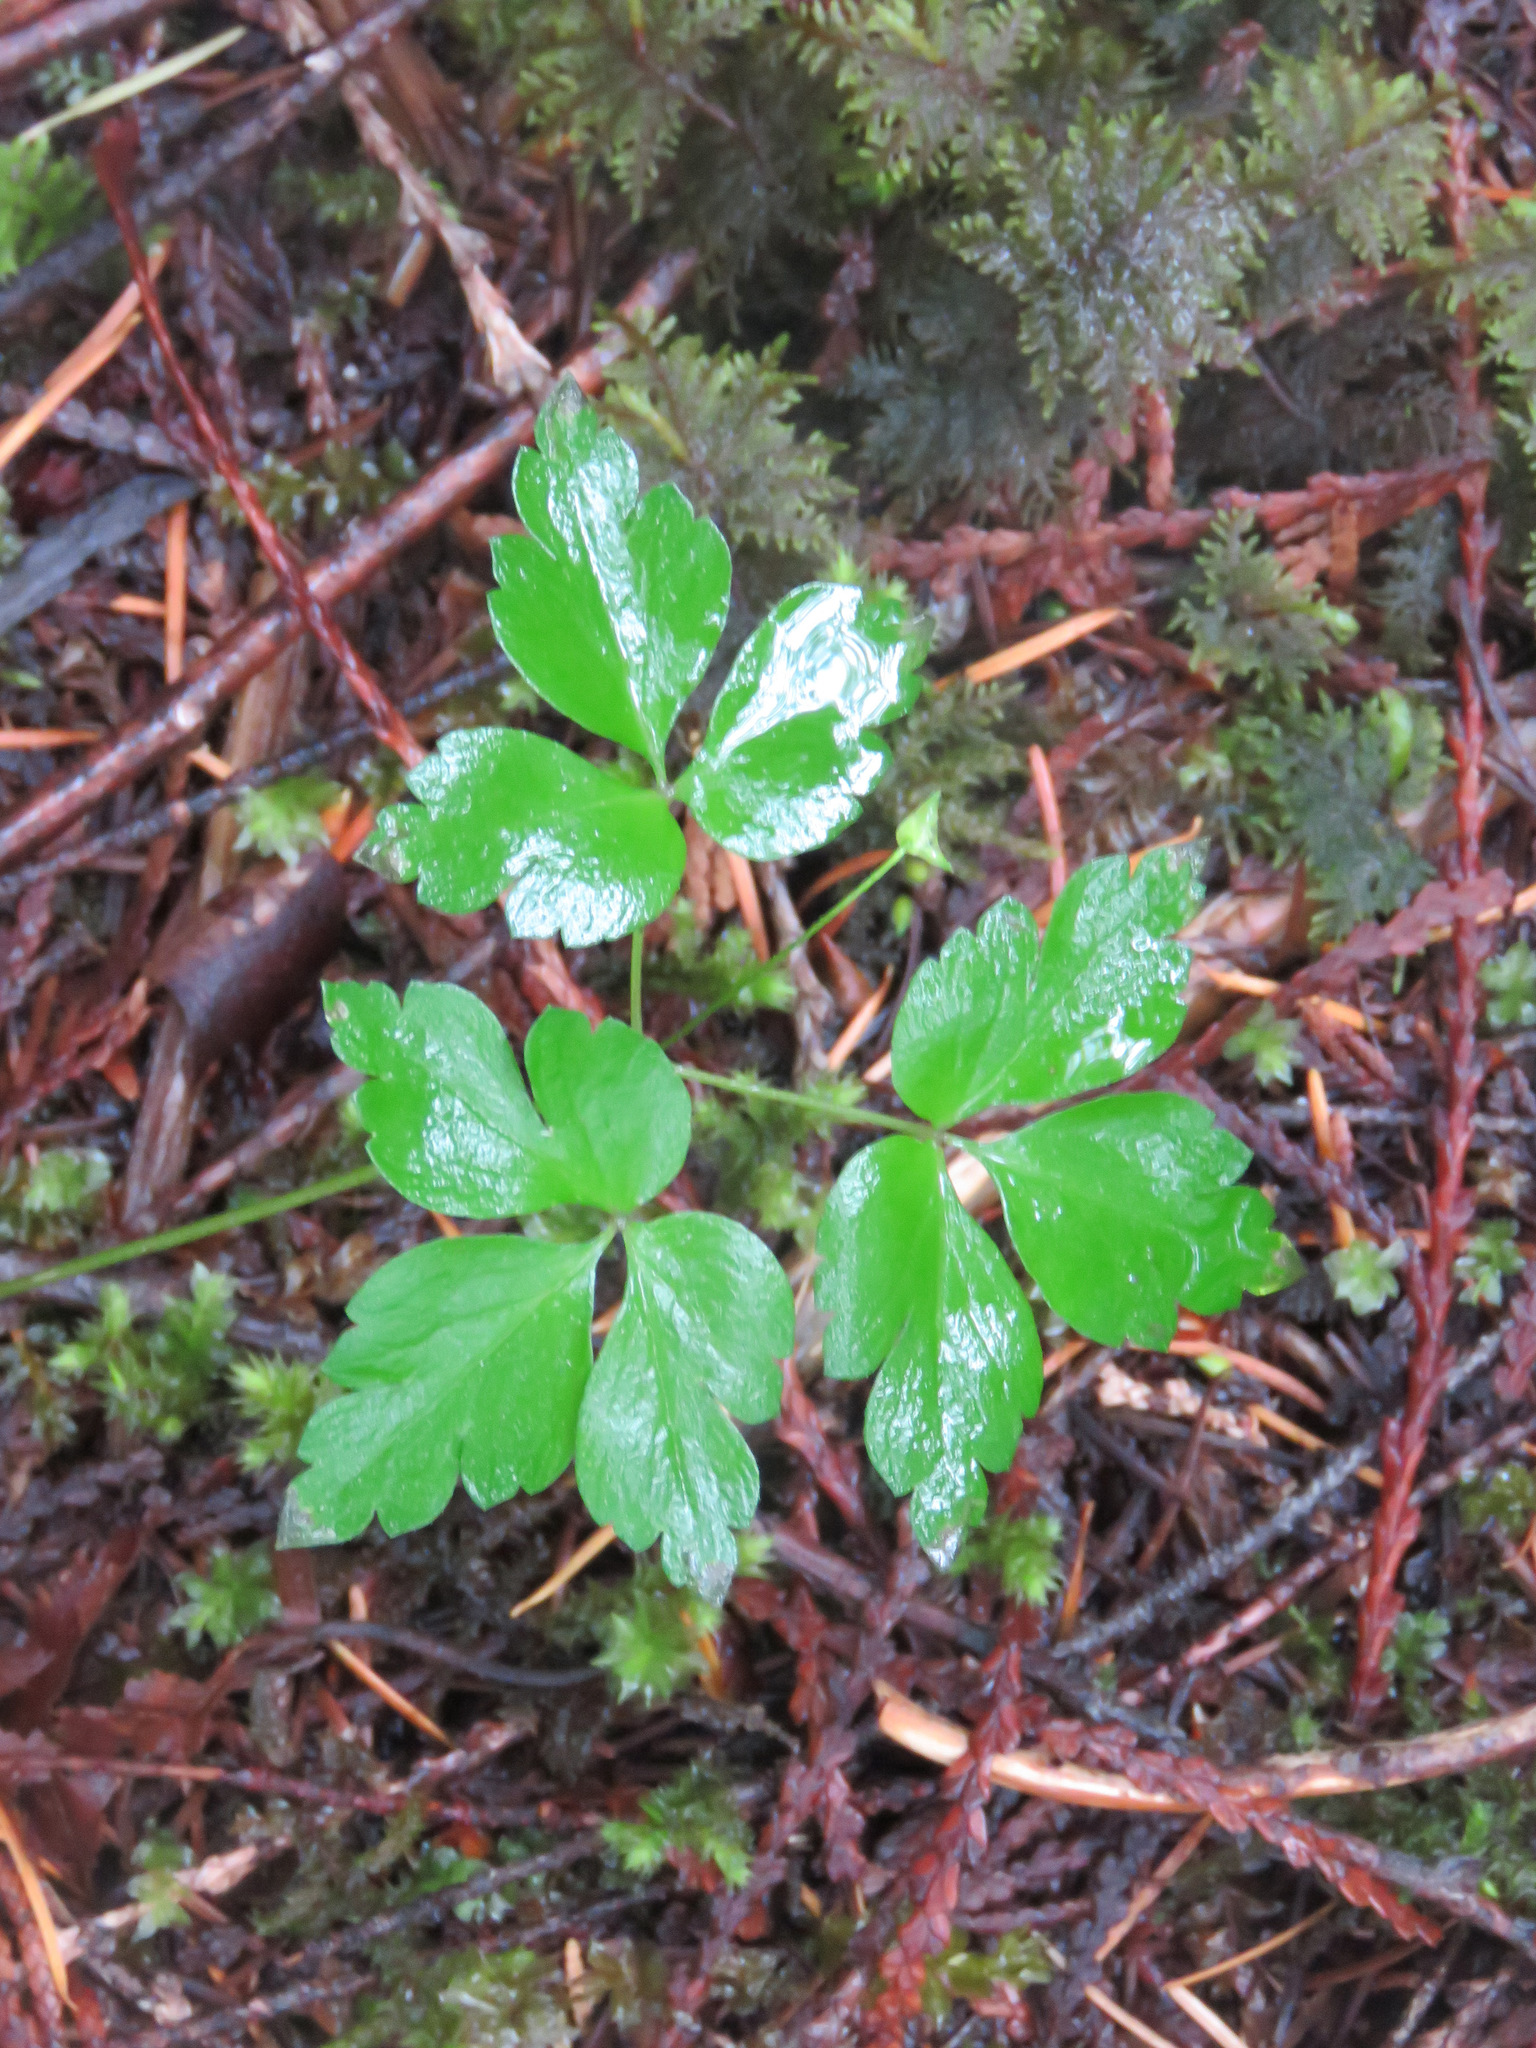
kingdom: Plantae
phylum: Tracheophyta
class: Magnoliopsida
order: Ranunculales
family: Ranunculaceae
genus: Anemone
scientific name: Anemone
